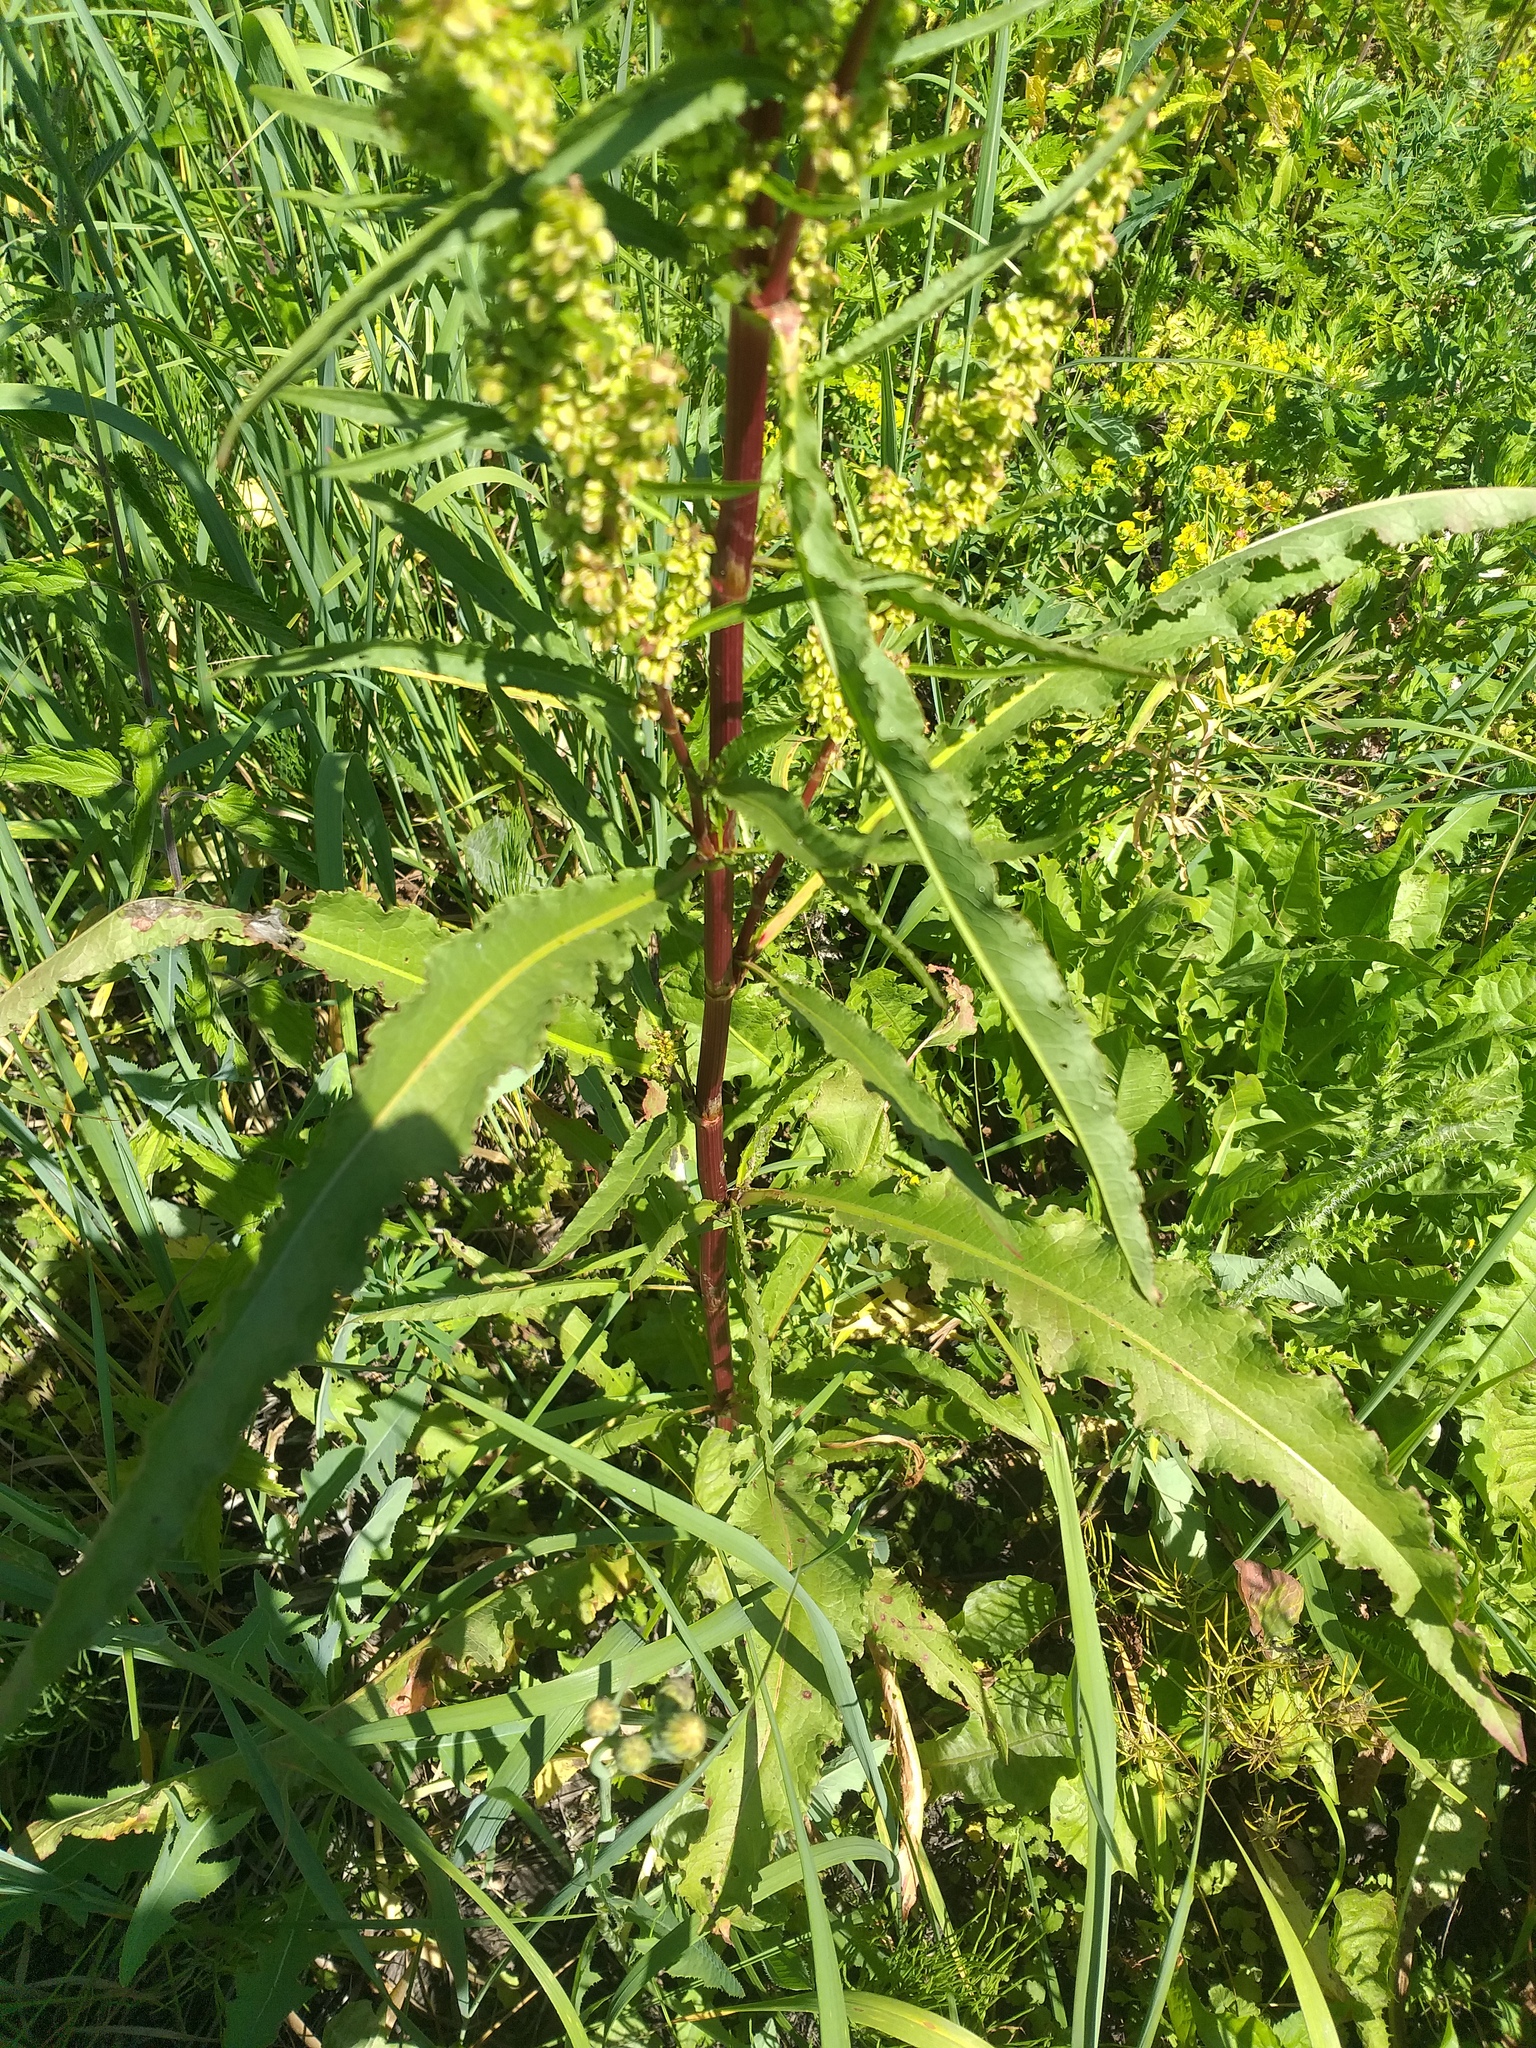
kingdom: Plantae
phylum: Tracheophyta
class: Magnoliopsida
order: Caryophyllales
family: Polygonaceae
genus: Rumex
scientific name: Rumex pseudonatronatus
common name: Field dock
